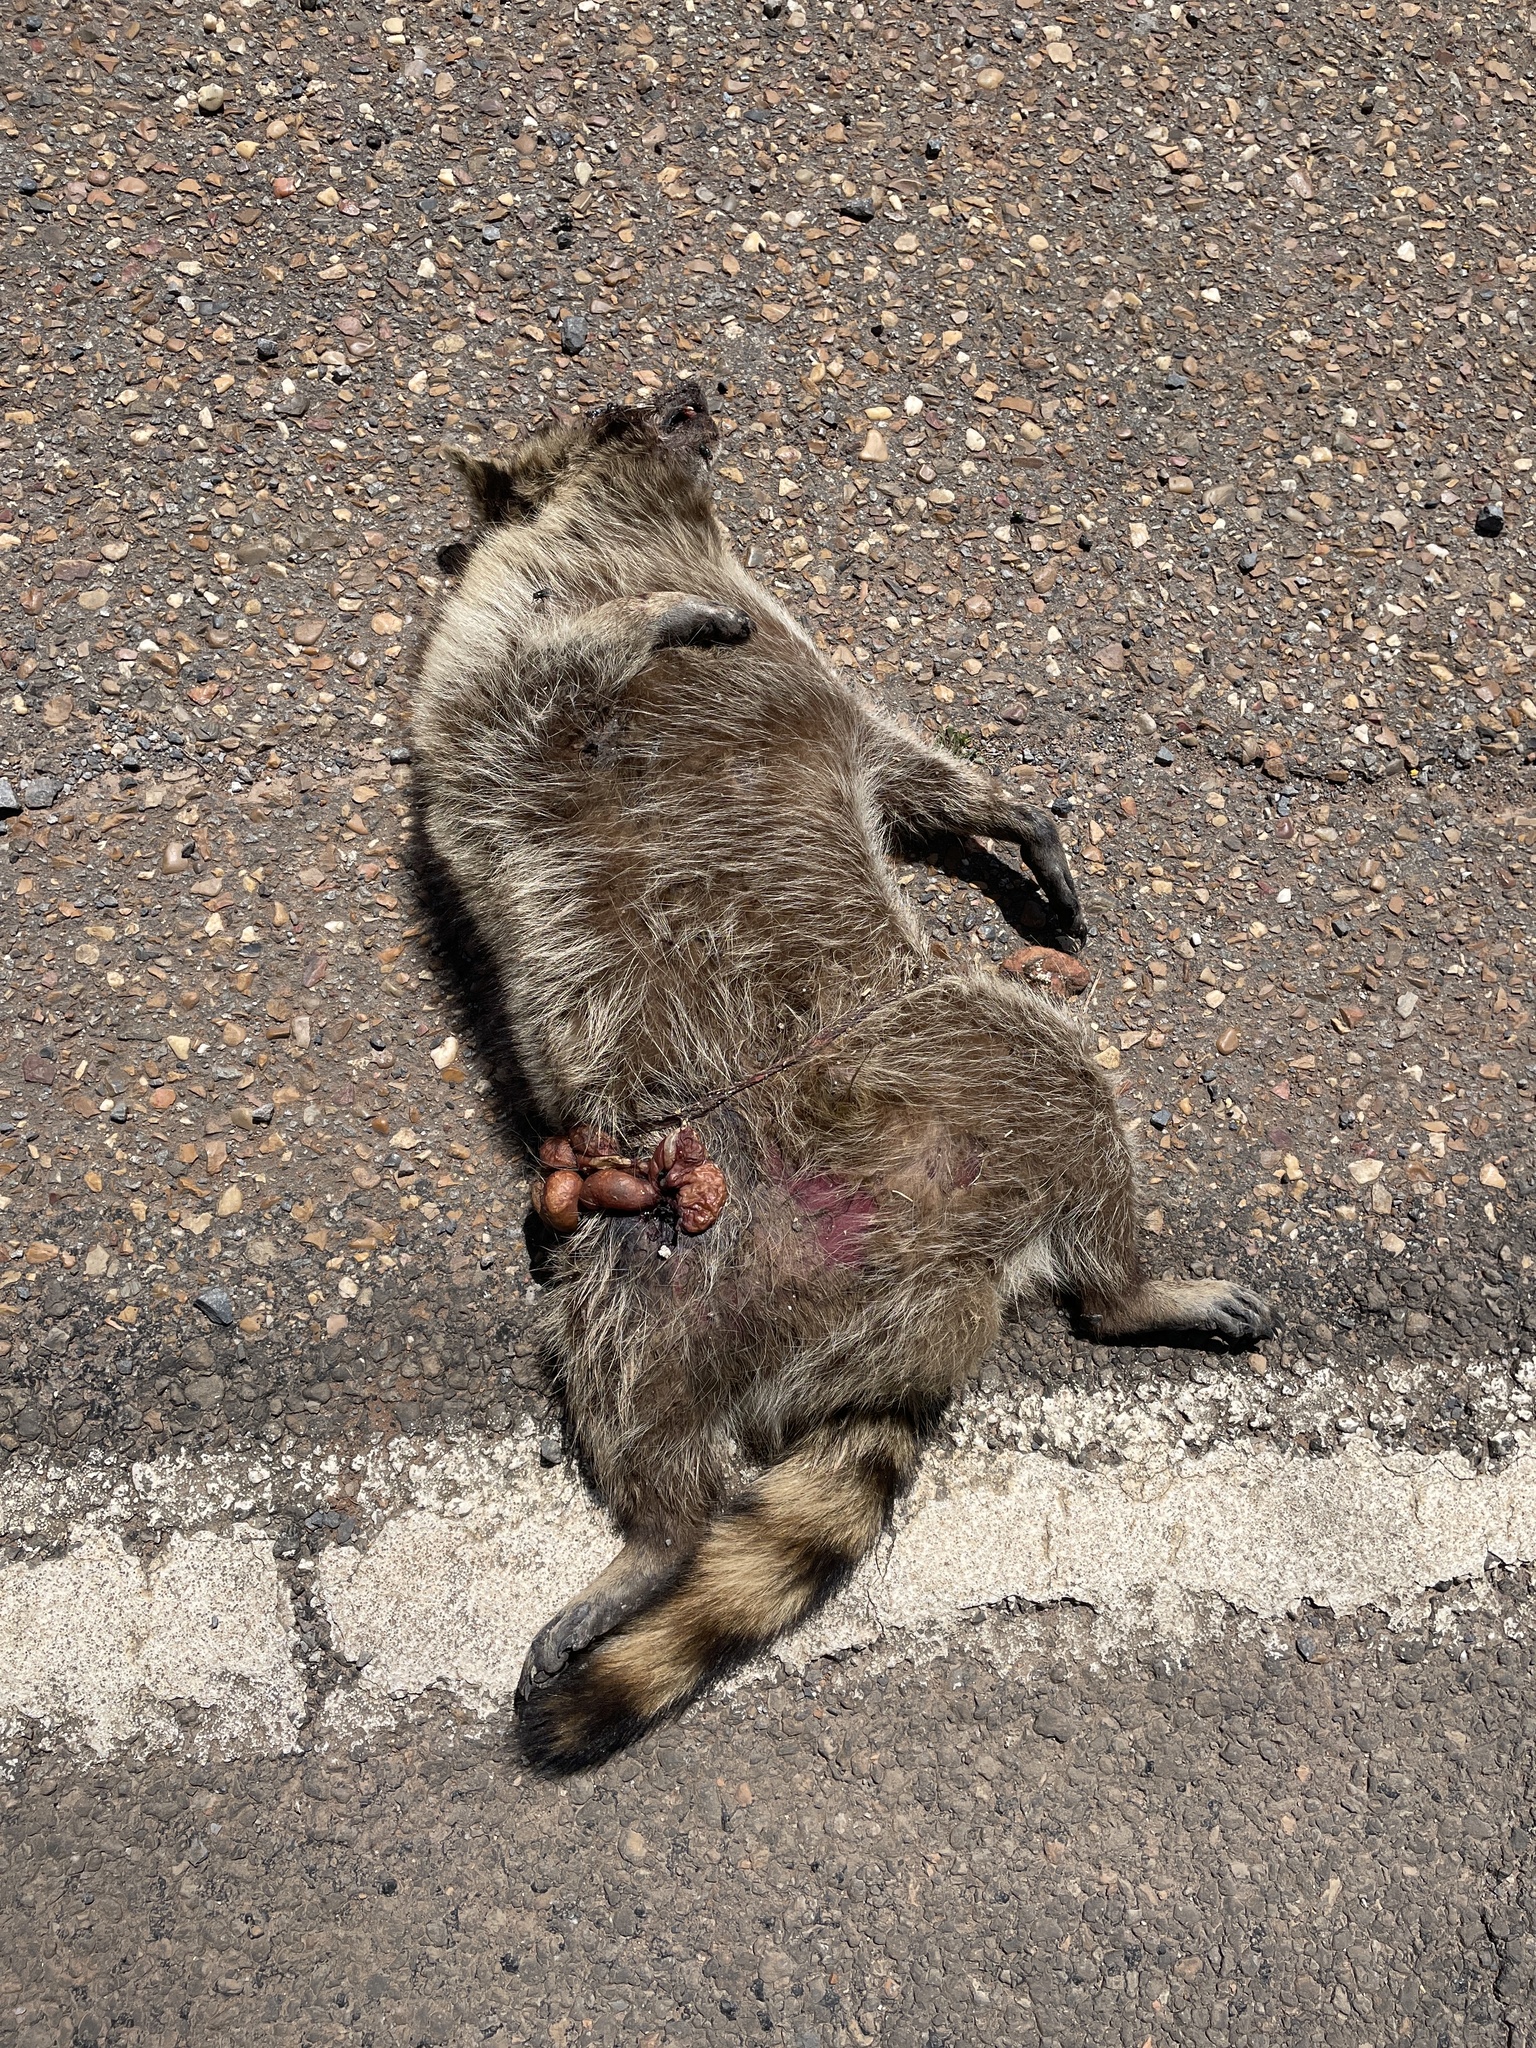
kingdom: Animalia
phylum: Chordata
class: Mammalia
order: Carnivora
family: Procyonidae
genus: Procyon
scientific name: Procyon lotor
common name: Raccoon
